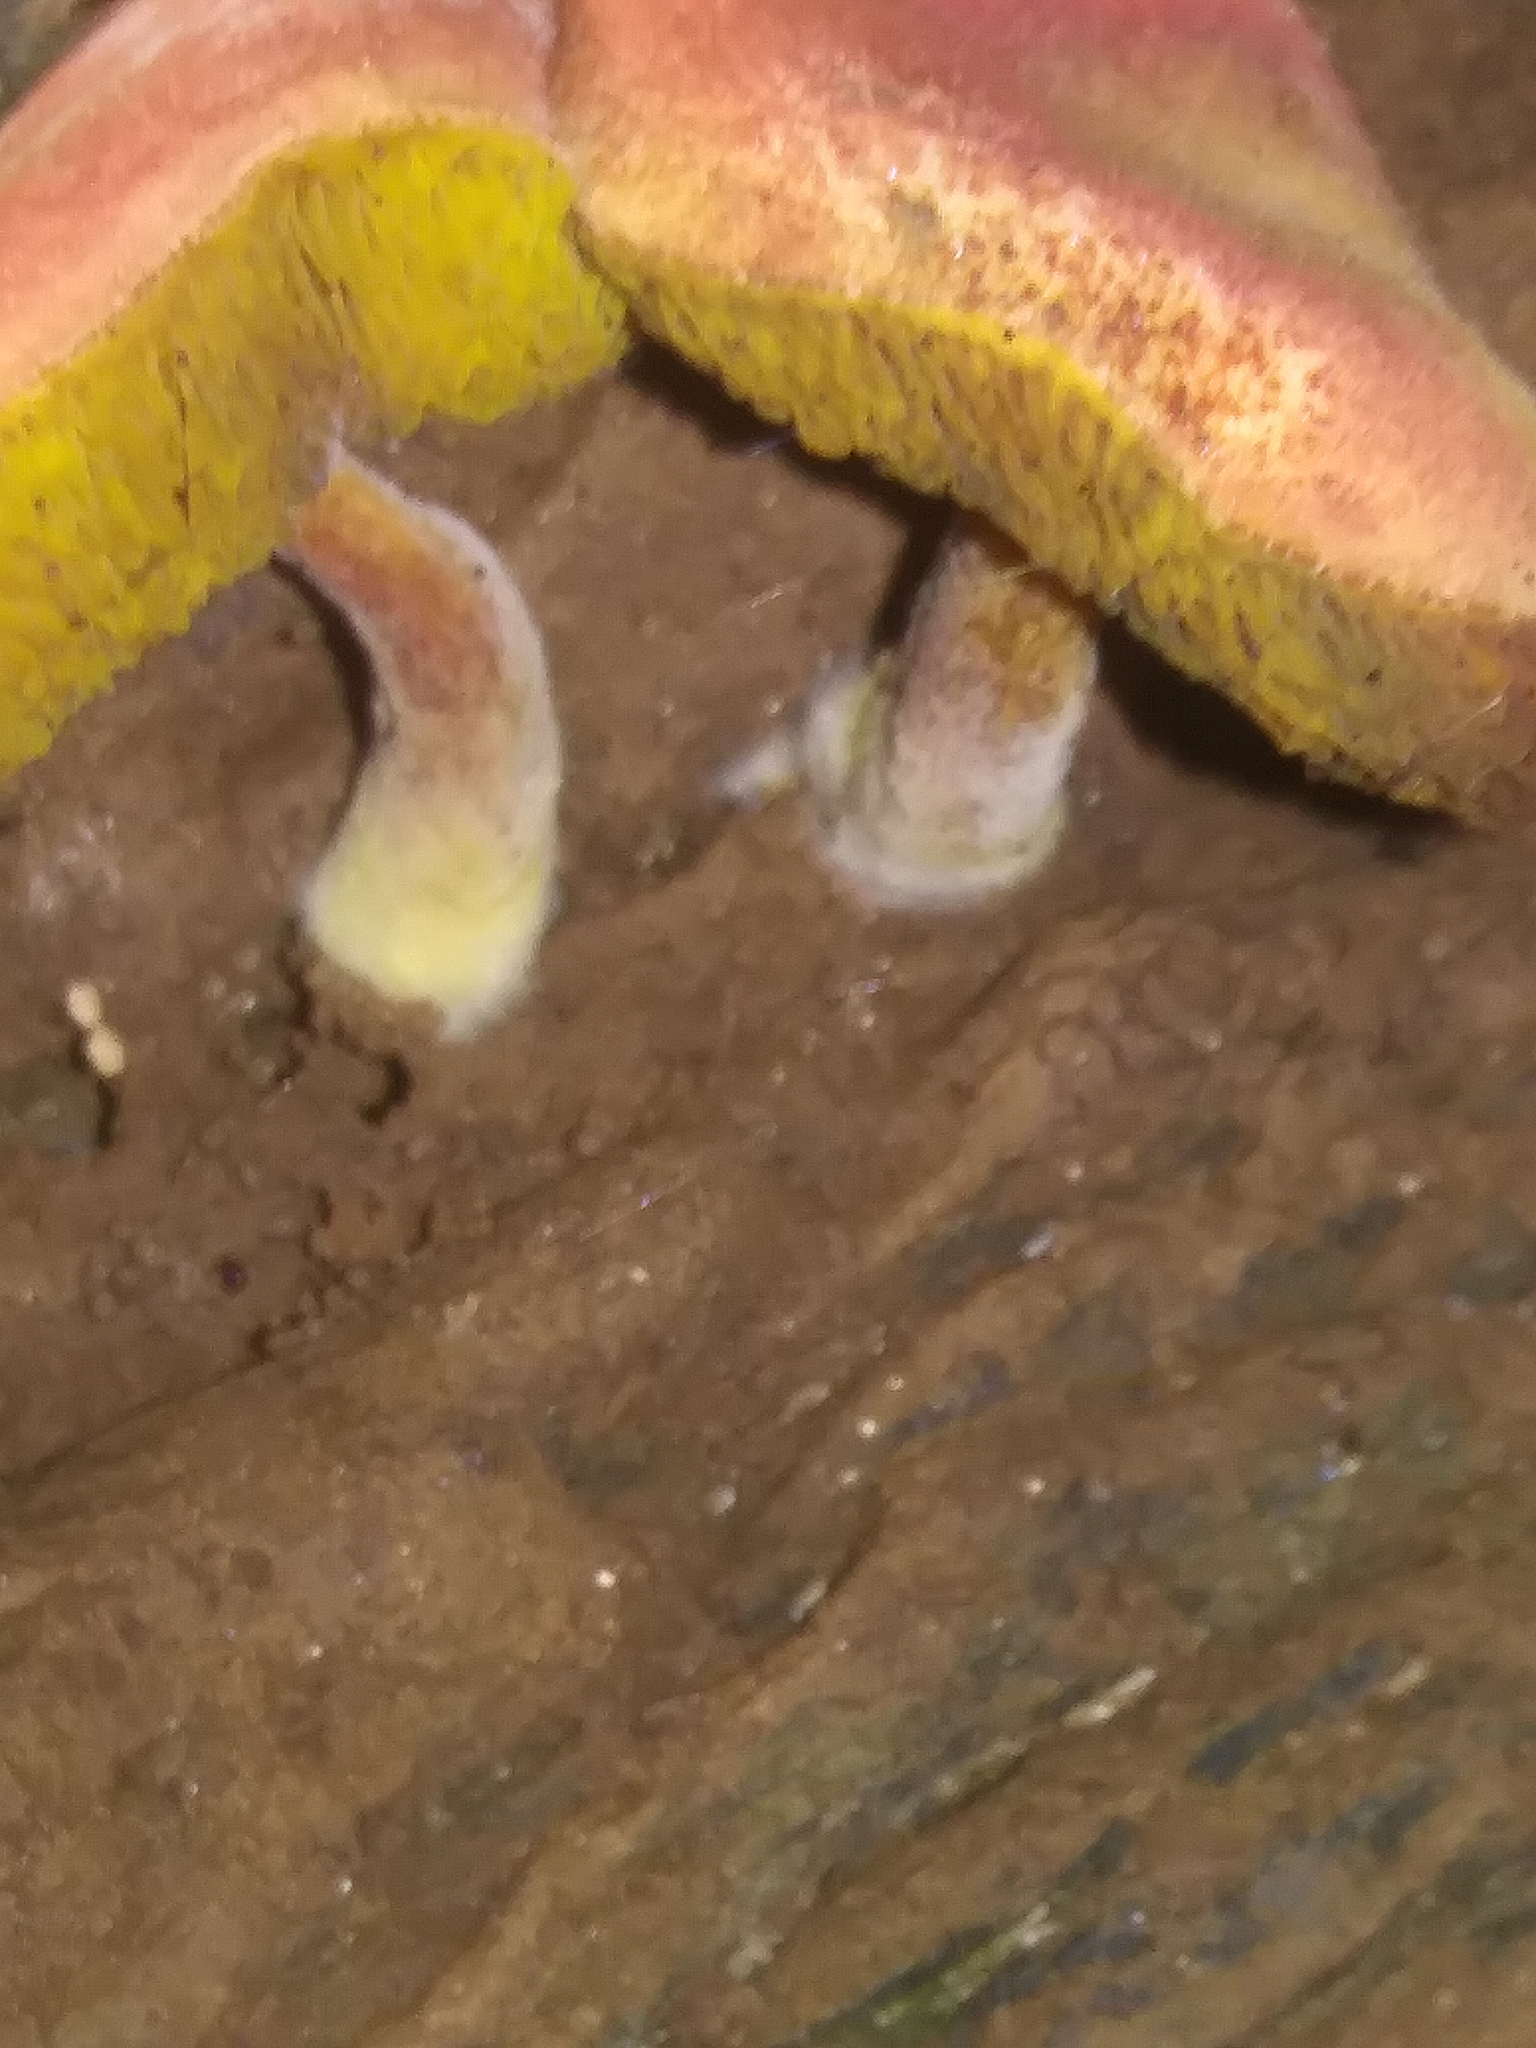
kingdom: Fungi
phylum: Basidiomycota
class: Agaricomycetes
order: Boletales
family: Boletaceae
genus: Phylloporus
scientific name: Phylloporus rhodoxanthus
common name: Golden gilled bolete
